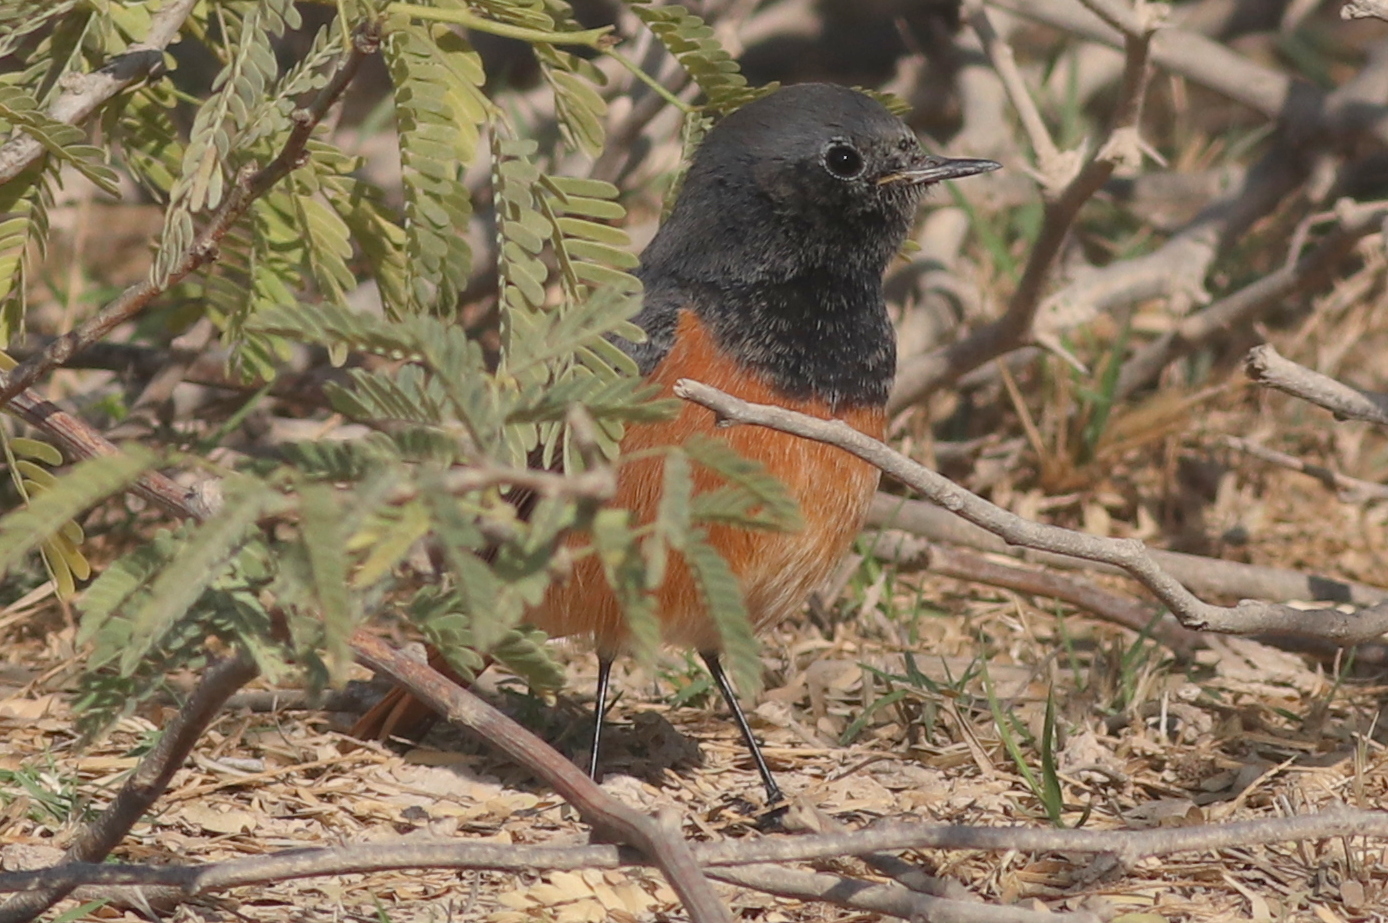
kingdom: Animalia
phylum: Chordata
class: Aves
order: Passeriformes
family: Muscicapidae
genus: Phoenicurus
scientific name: Phoenicurus ochruros
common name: Black redstart
